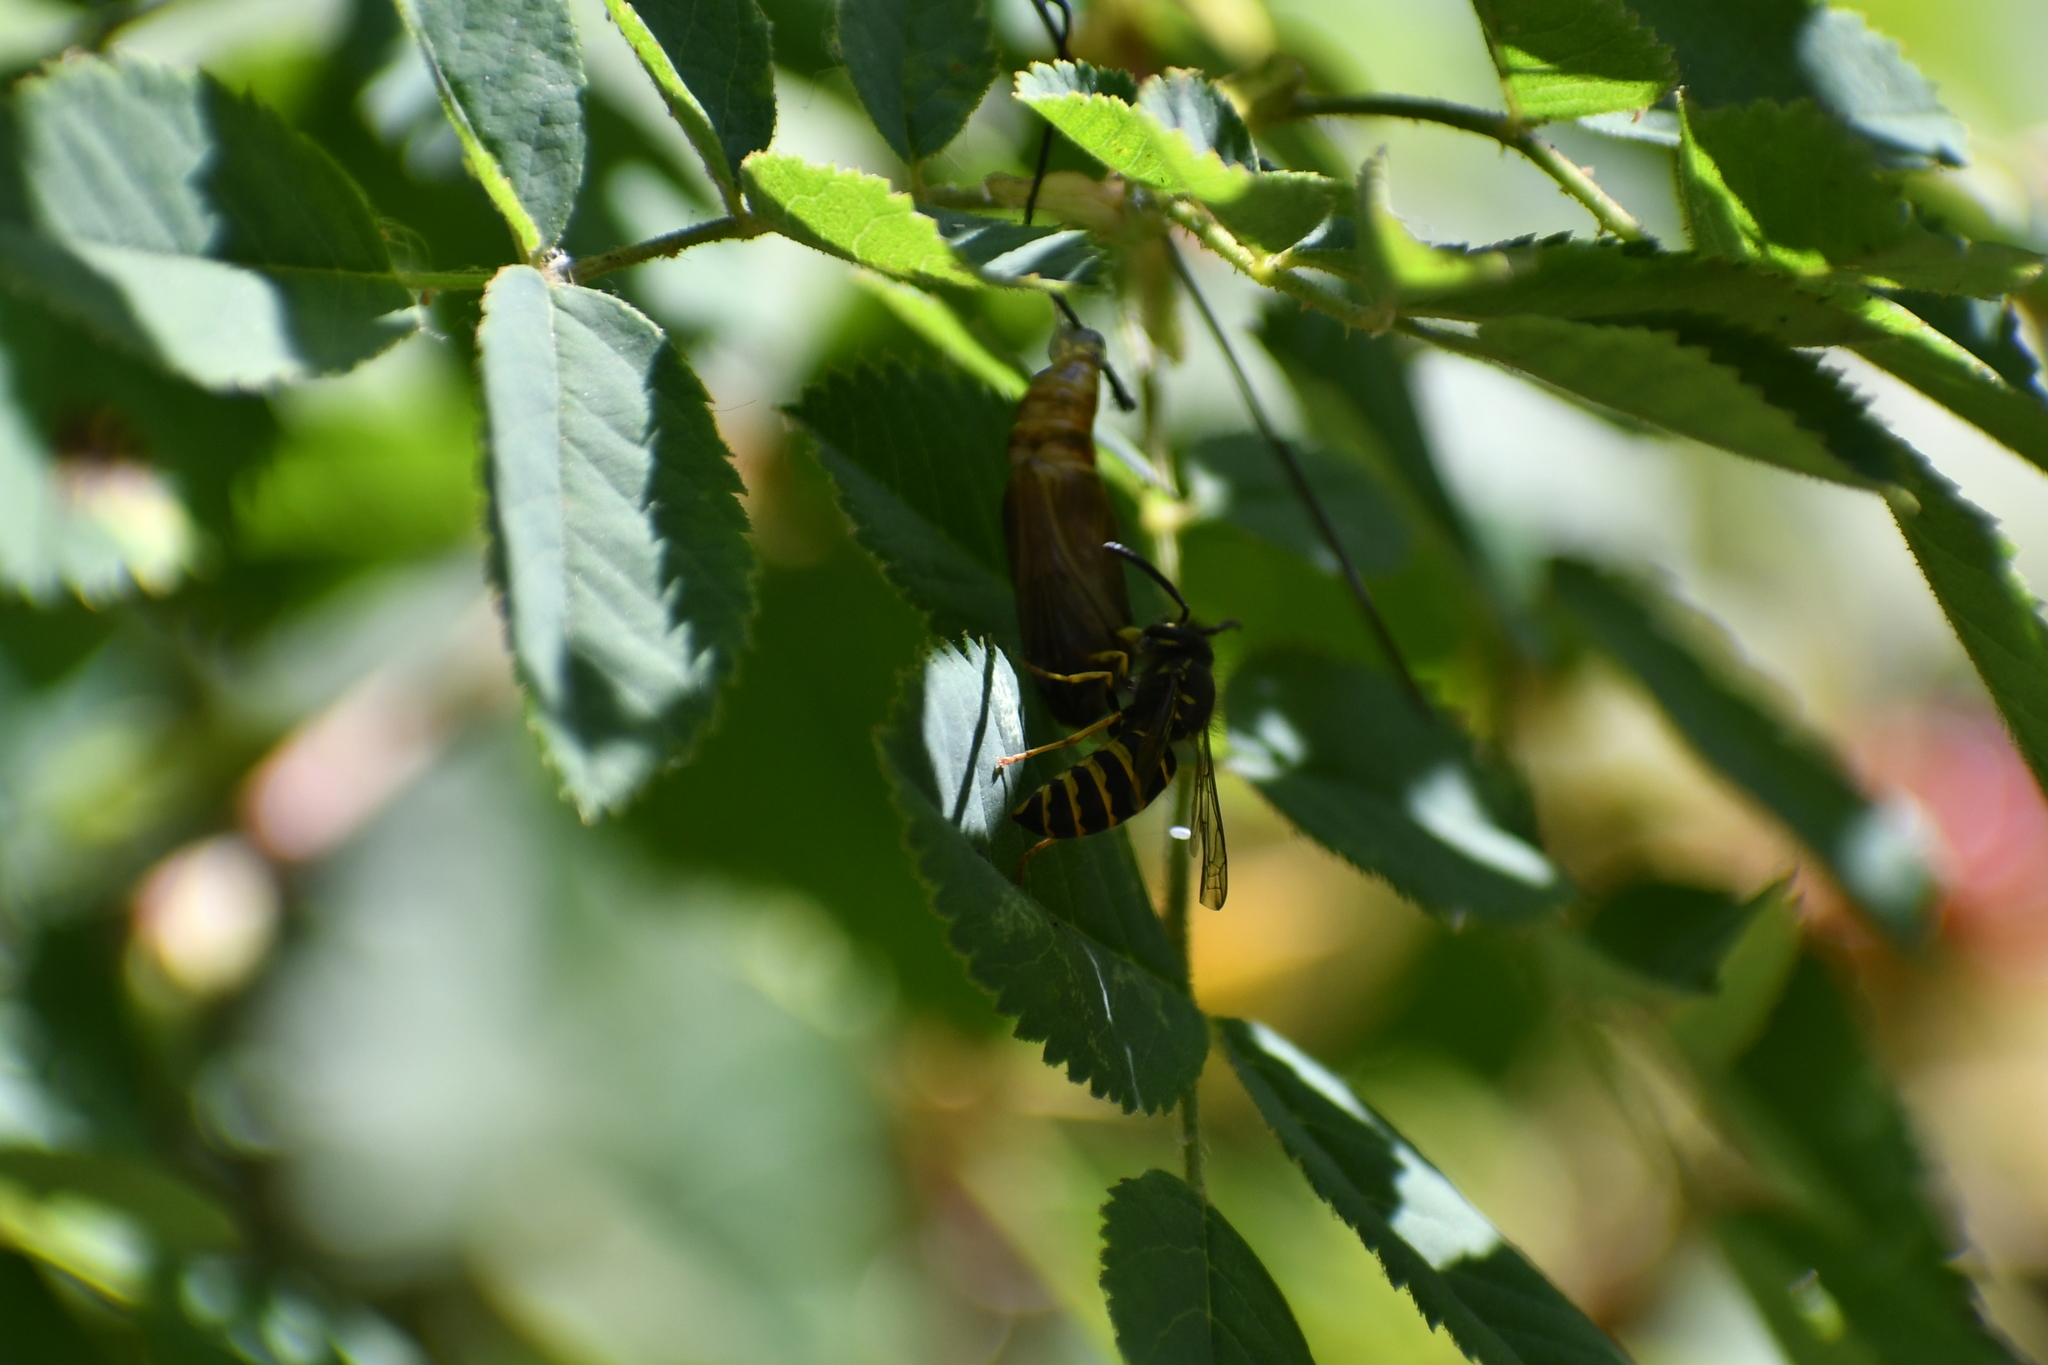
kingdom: Animalia
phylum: Arthropoda
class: Insecta
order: Hymenoptera
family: Vespidae
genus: Vespula
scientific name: Vespula alascensis
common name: Alaska yellowjacket
